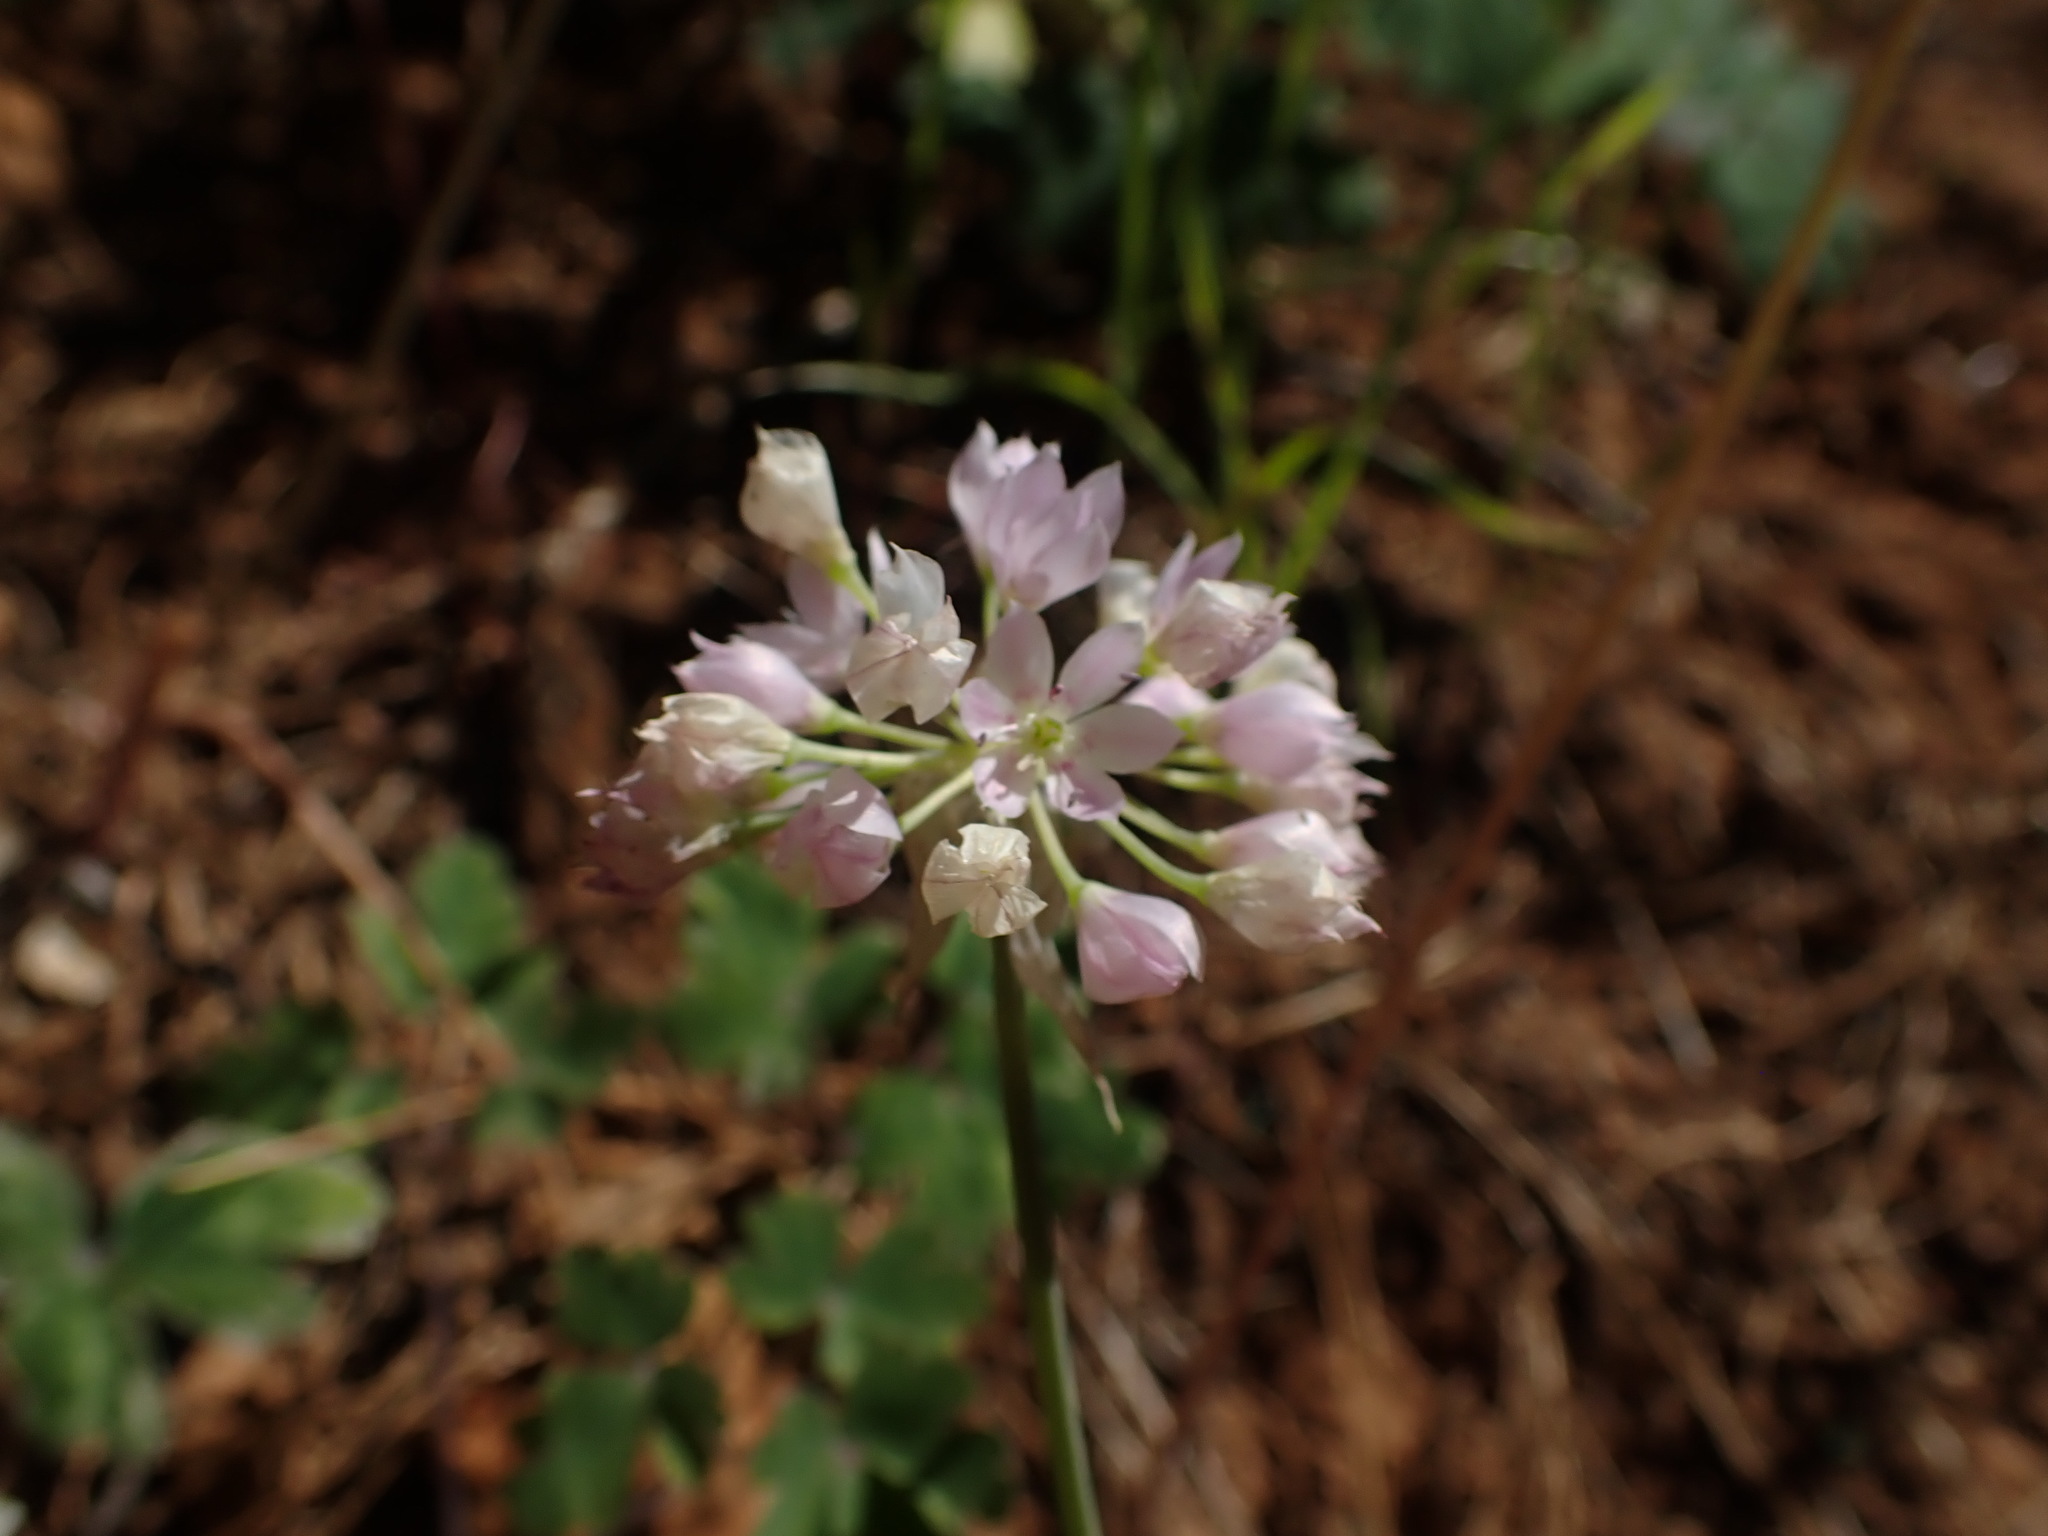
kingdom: Plantae
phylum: Tracheophyta
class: Liliopsida
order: Asparagales
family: Amaryllidaceae
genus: Allium
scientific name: Allium membranaceum
